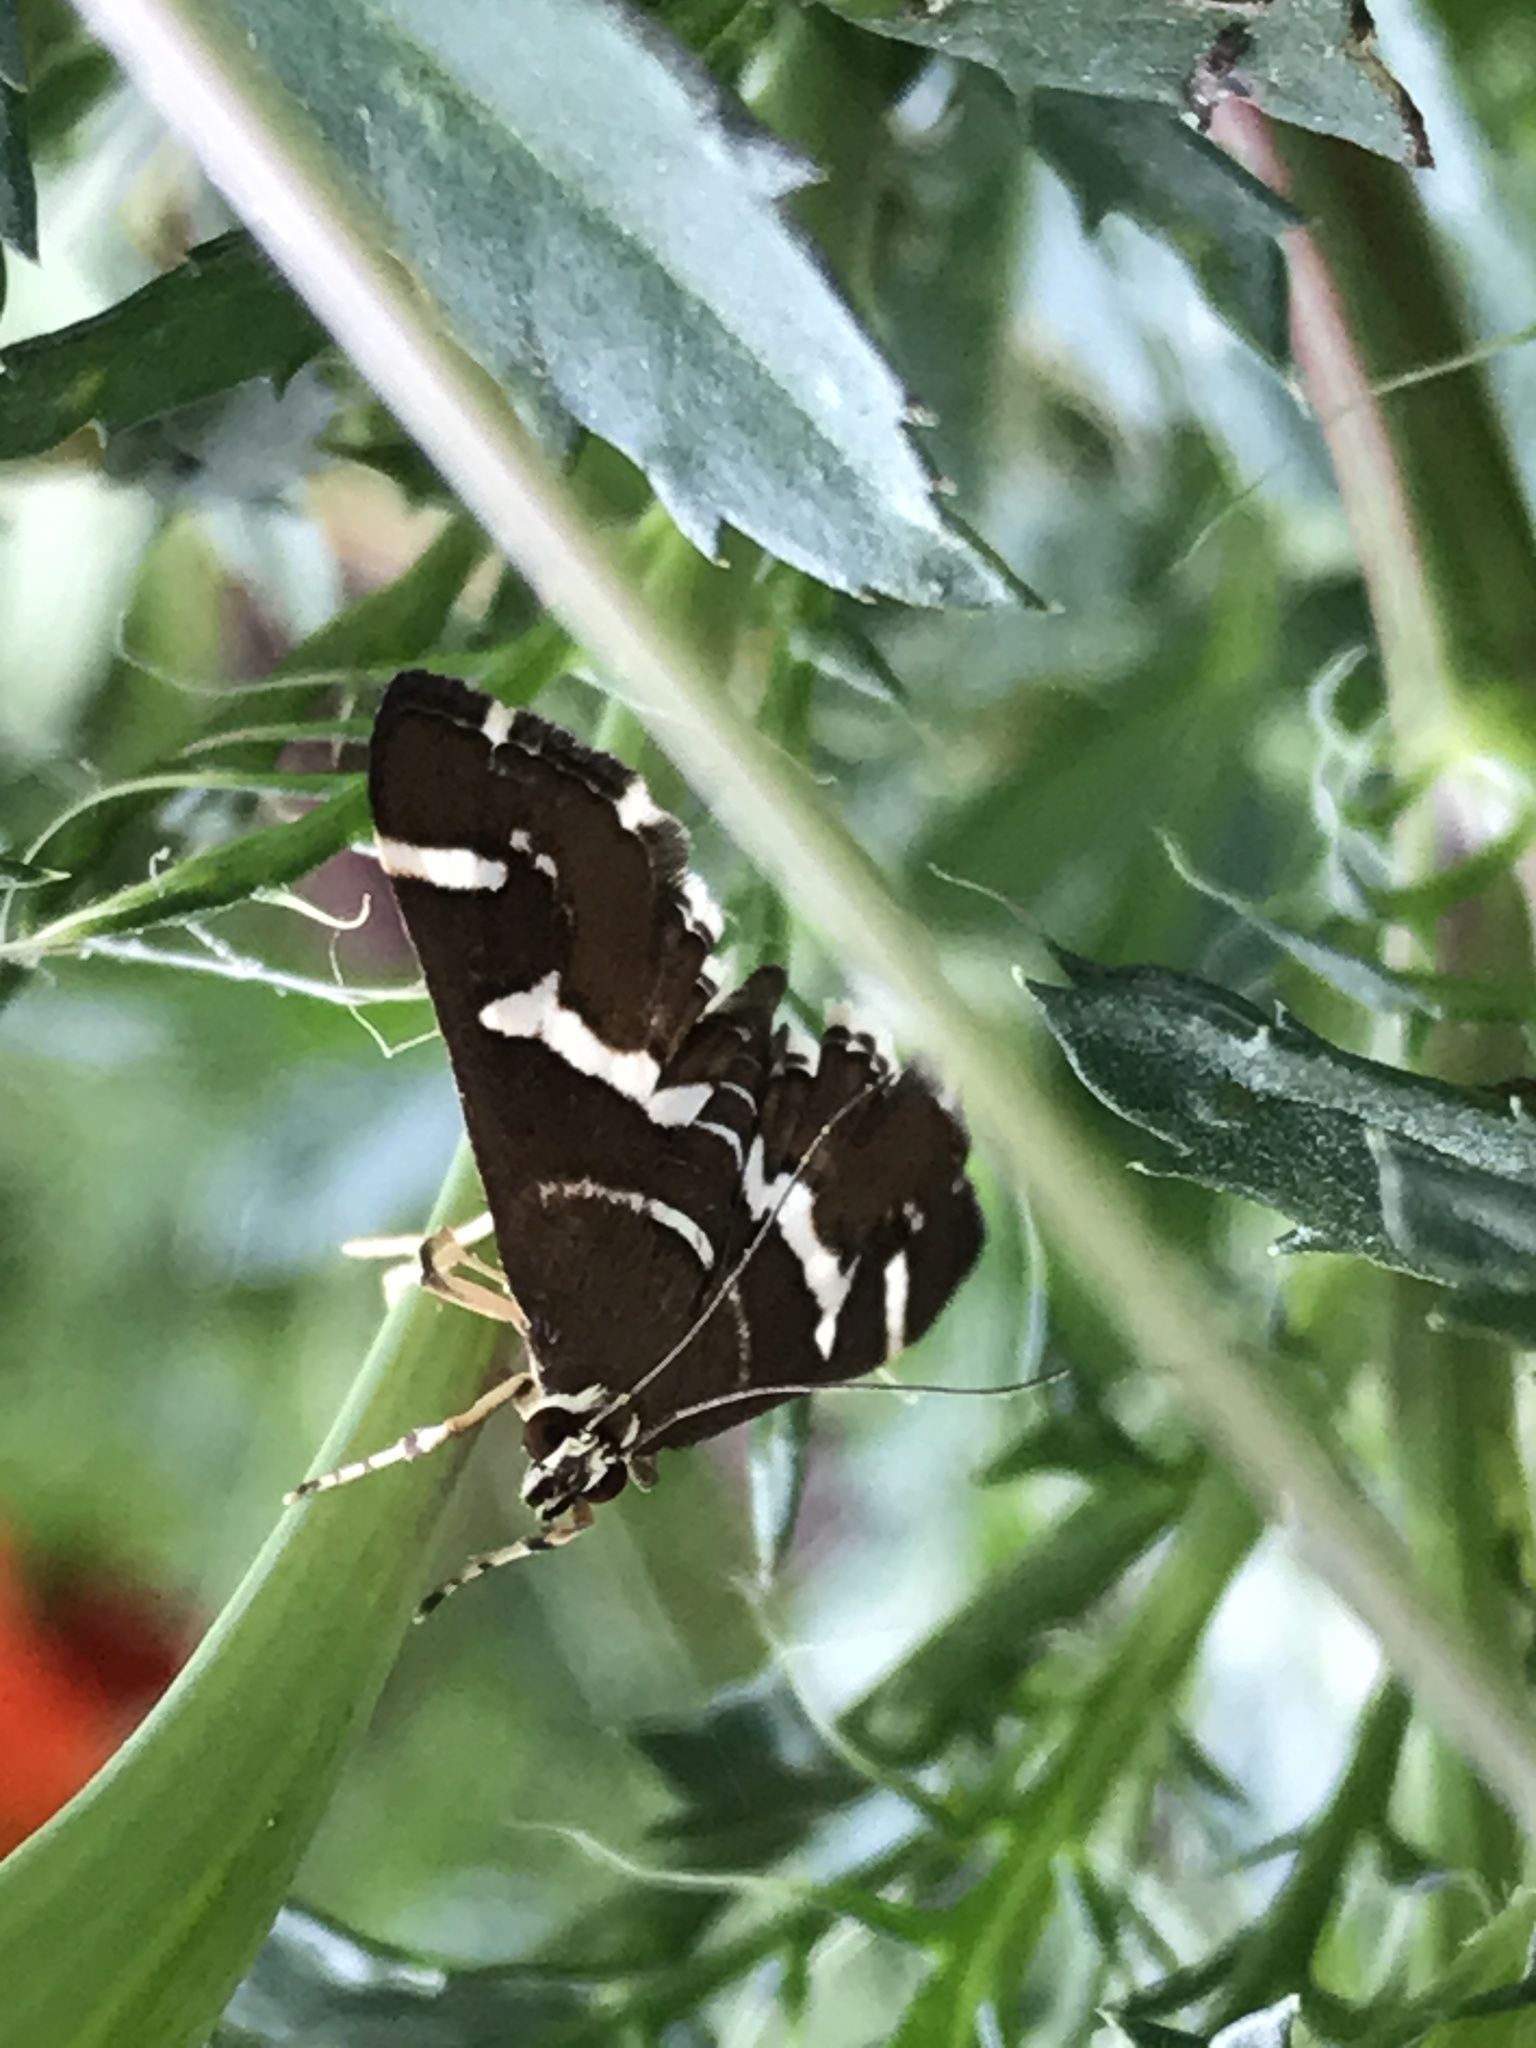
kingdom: Animalia
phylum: Arthropoda
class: Insecta
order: Lepidoptera
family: Crambidae
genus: Spoladea
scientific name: Spoladea recurvalis
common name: Beet webworm moth
